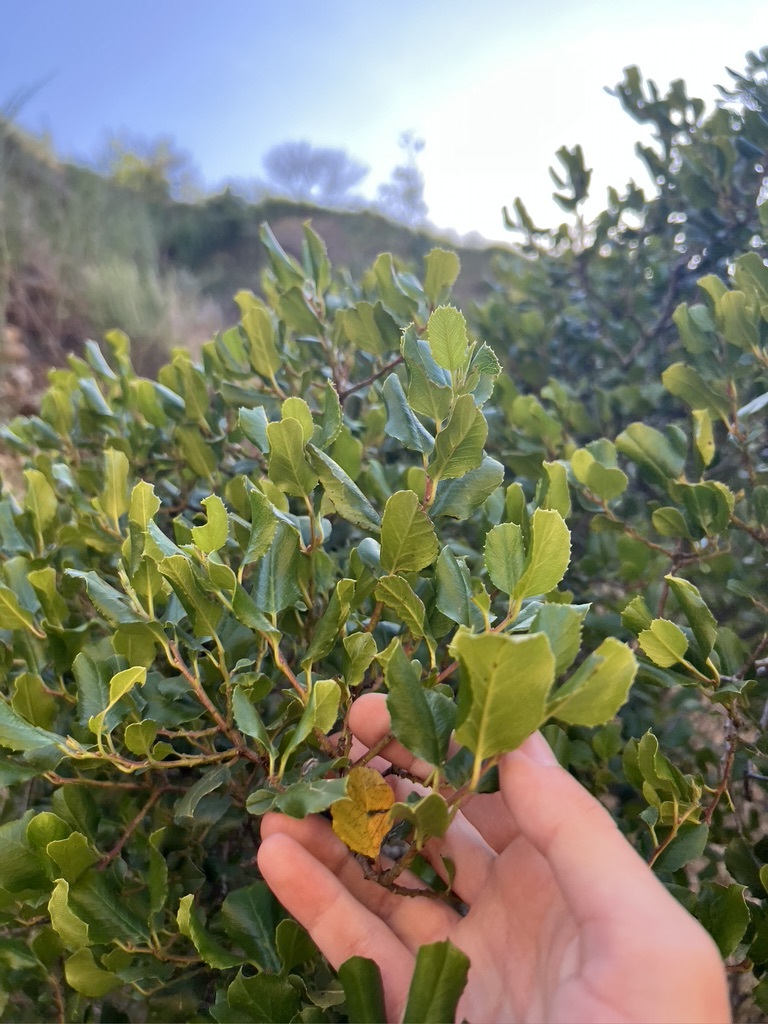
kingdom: Plantae
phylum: Tracheophyta
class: Magnoliopsida
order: Rosales
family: Rhamnaceae
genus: Endotropis
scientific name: Endotropis crocea
